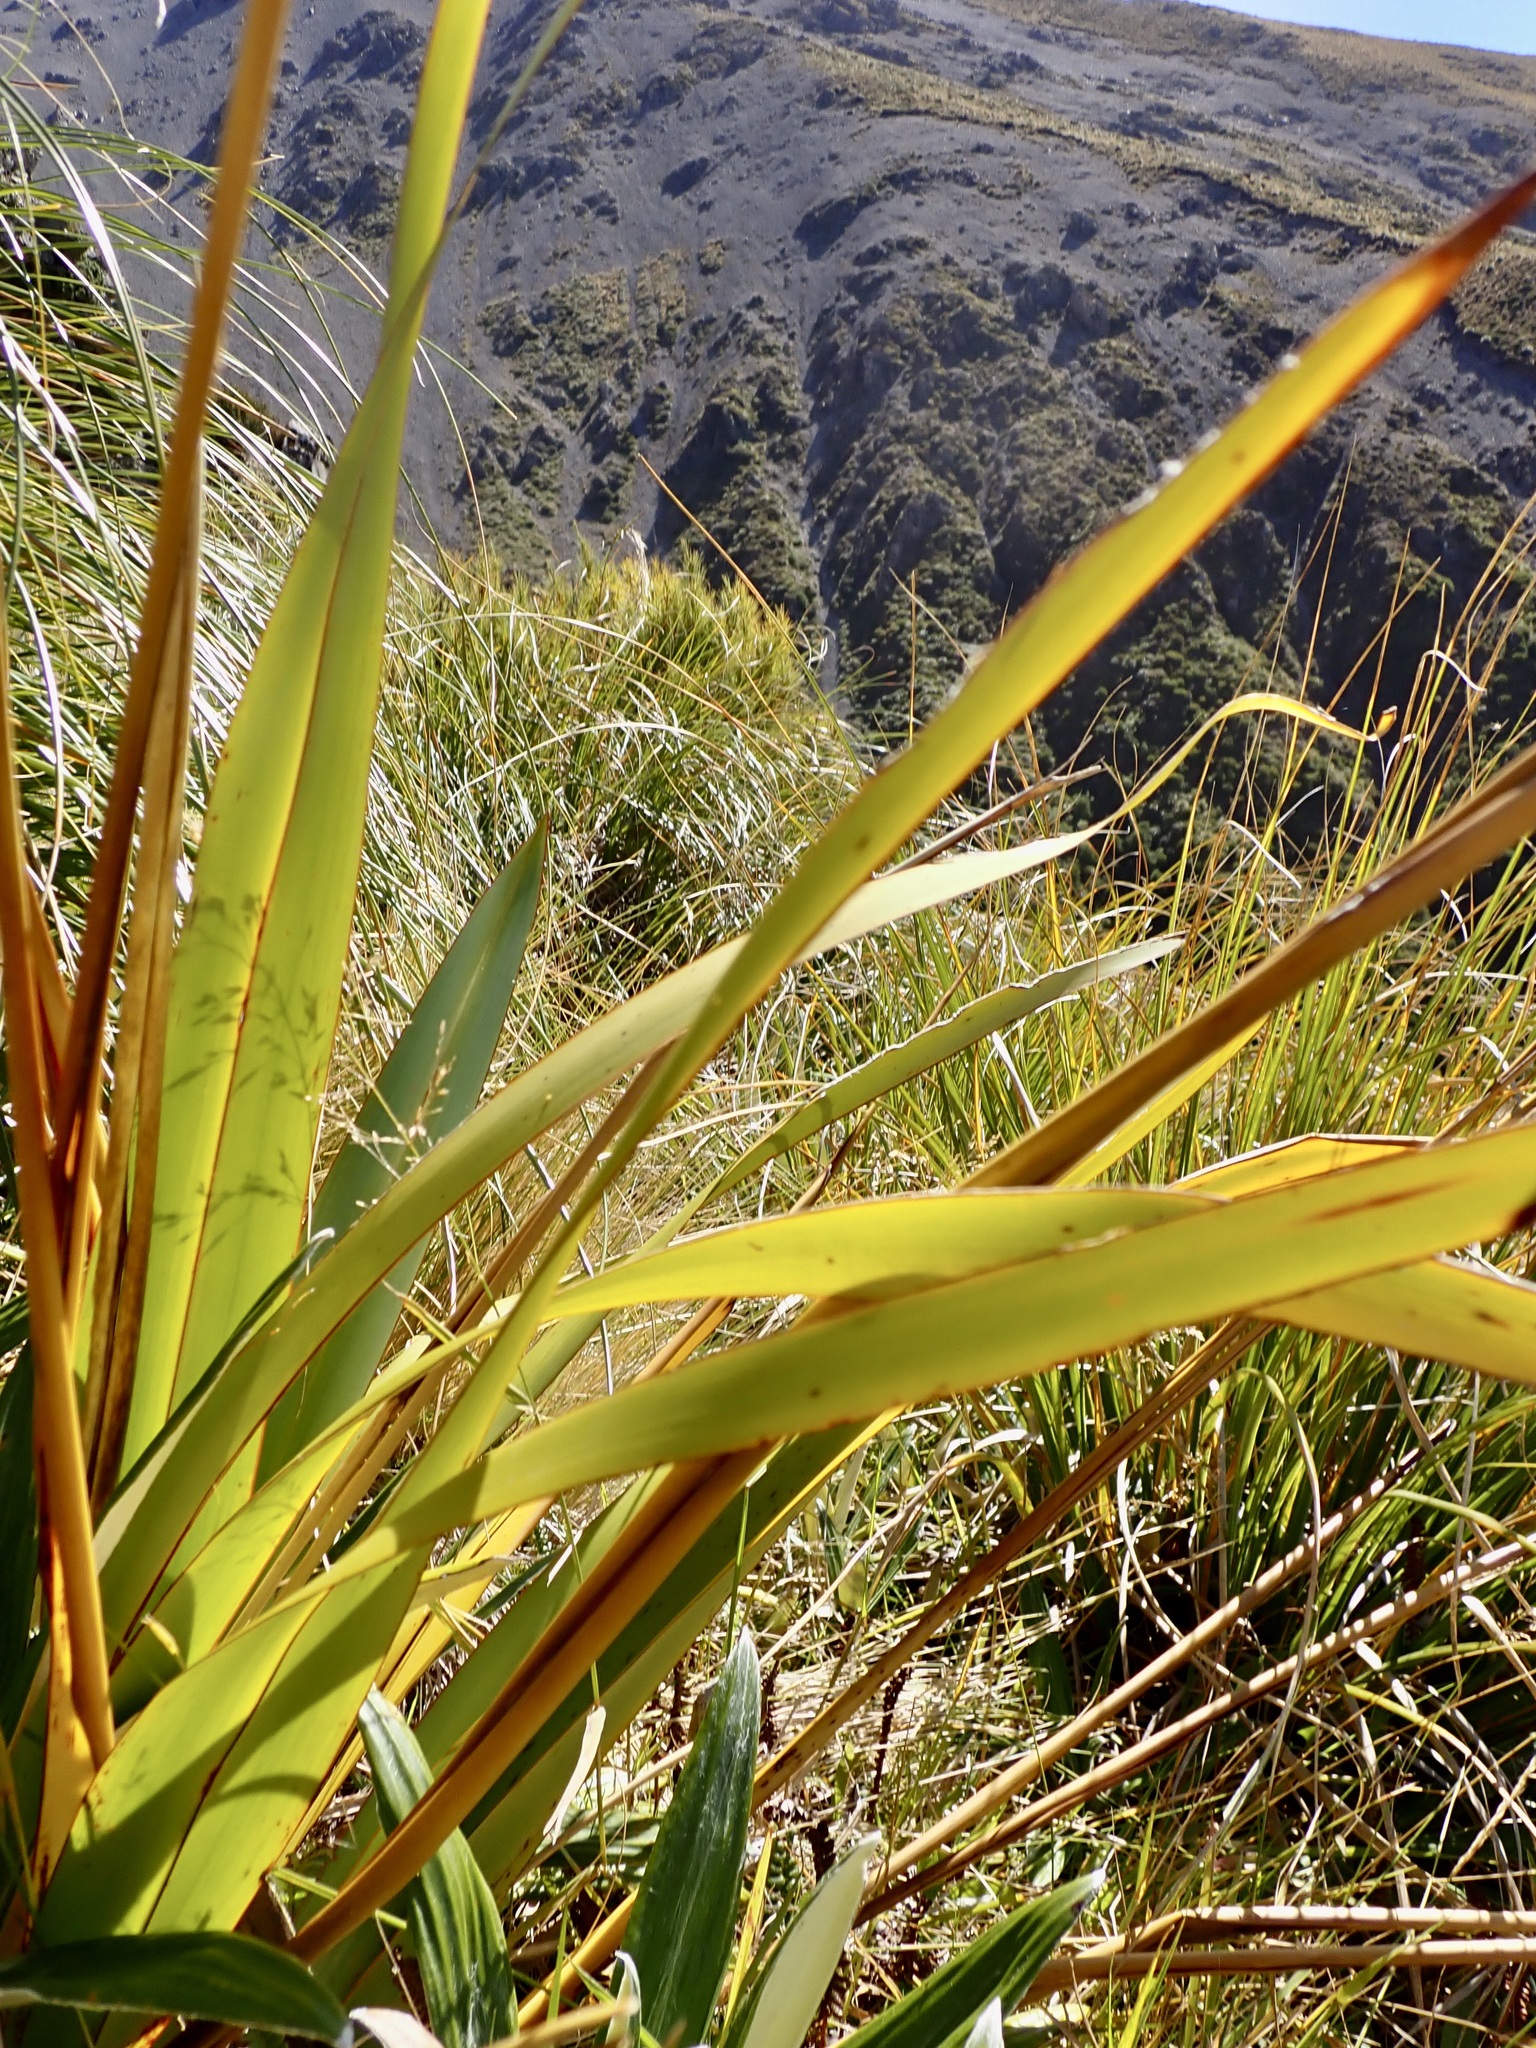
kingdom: Plantae
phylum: Tracheophyta
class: Liliopsida
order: Asparagales
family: Asphodelaceae
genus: Phormium
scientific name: Phormium colensoi
